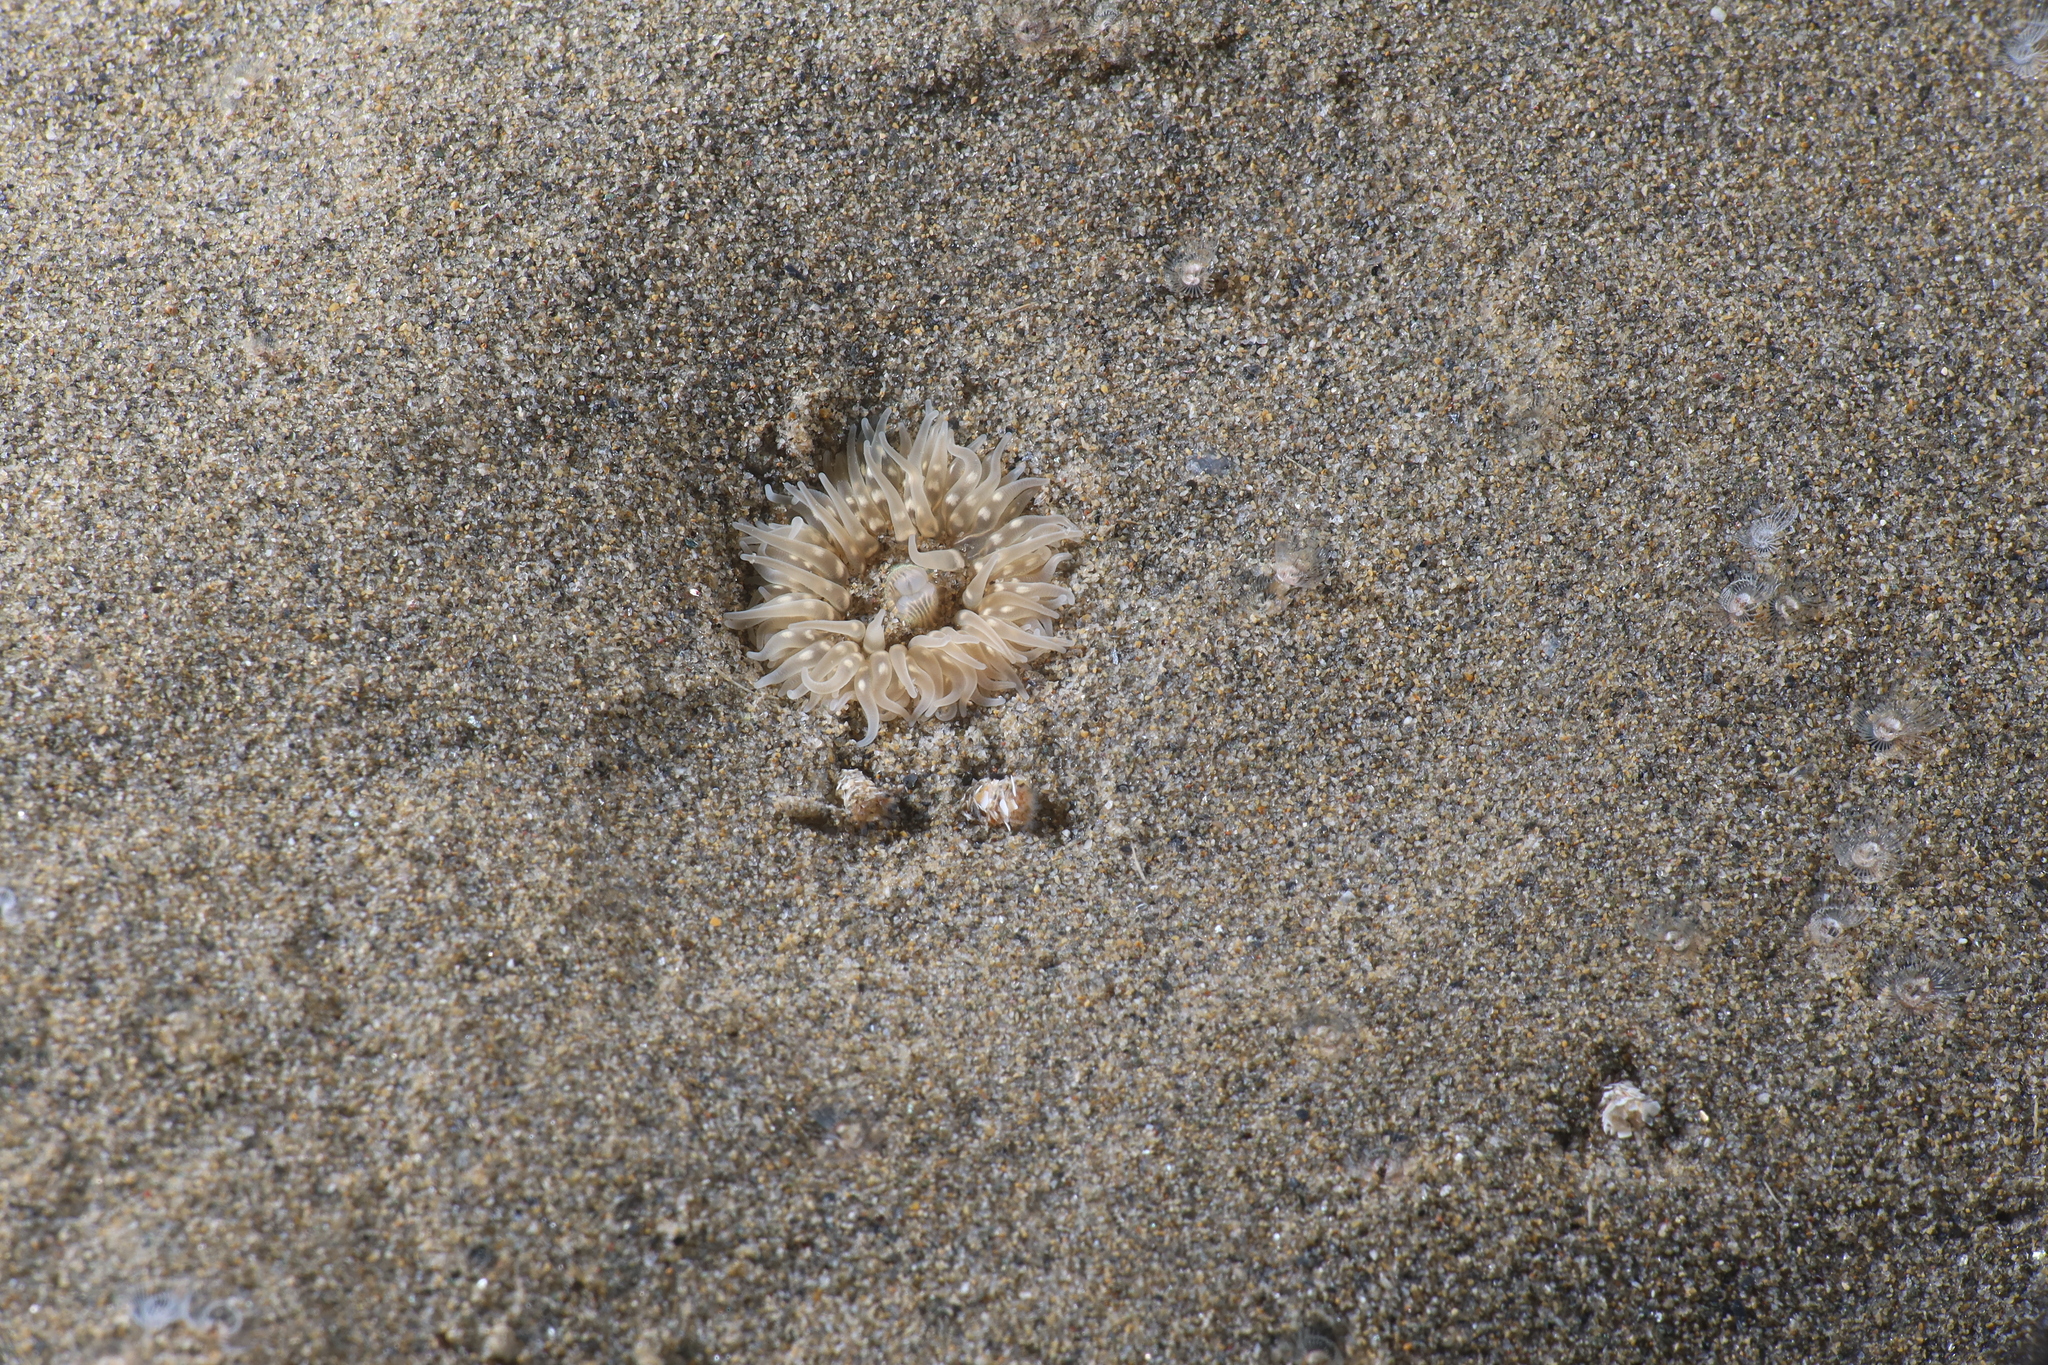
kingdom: Animalia
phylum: Cnidaria
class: Anthozoa
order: Actiniaria
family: Sagartiidae
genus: Cylista
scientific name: Cylista troglodytes
